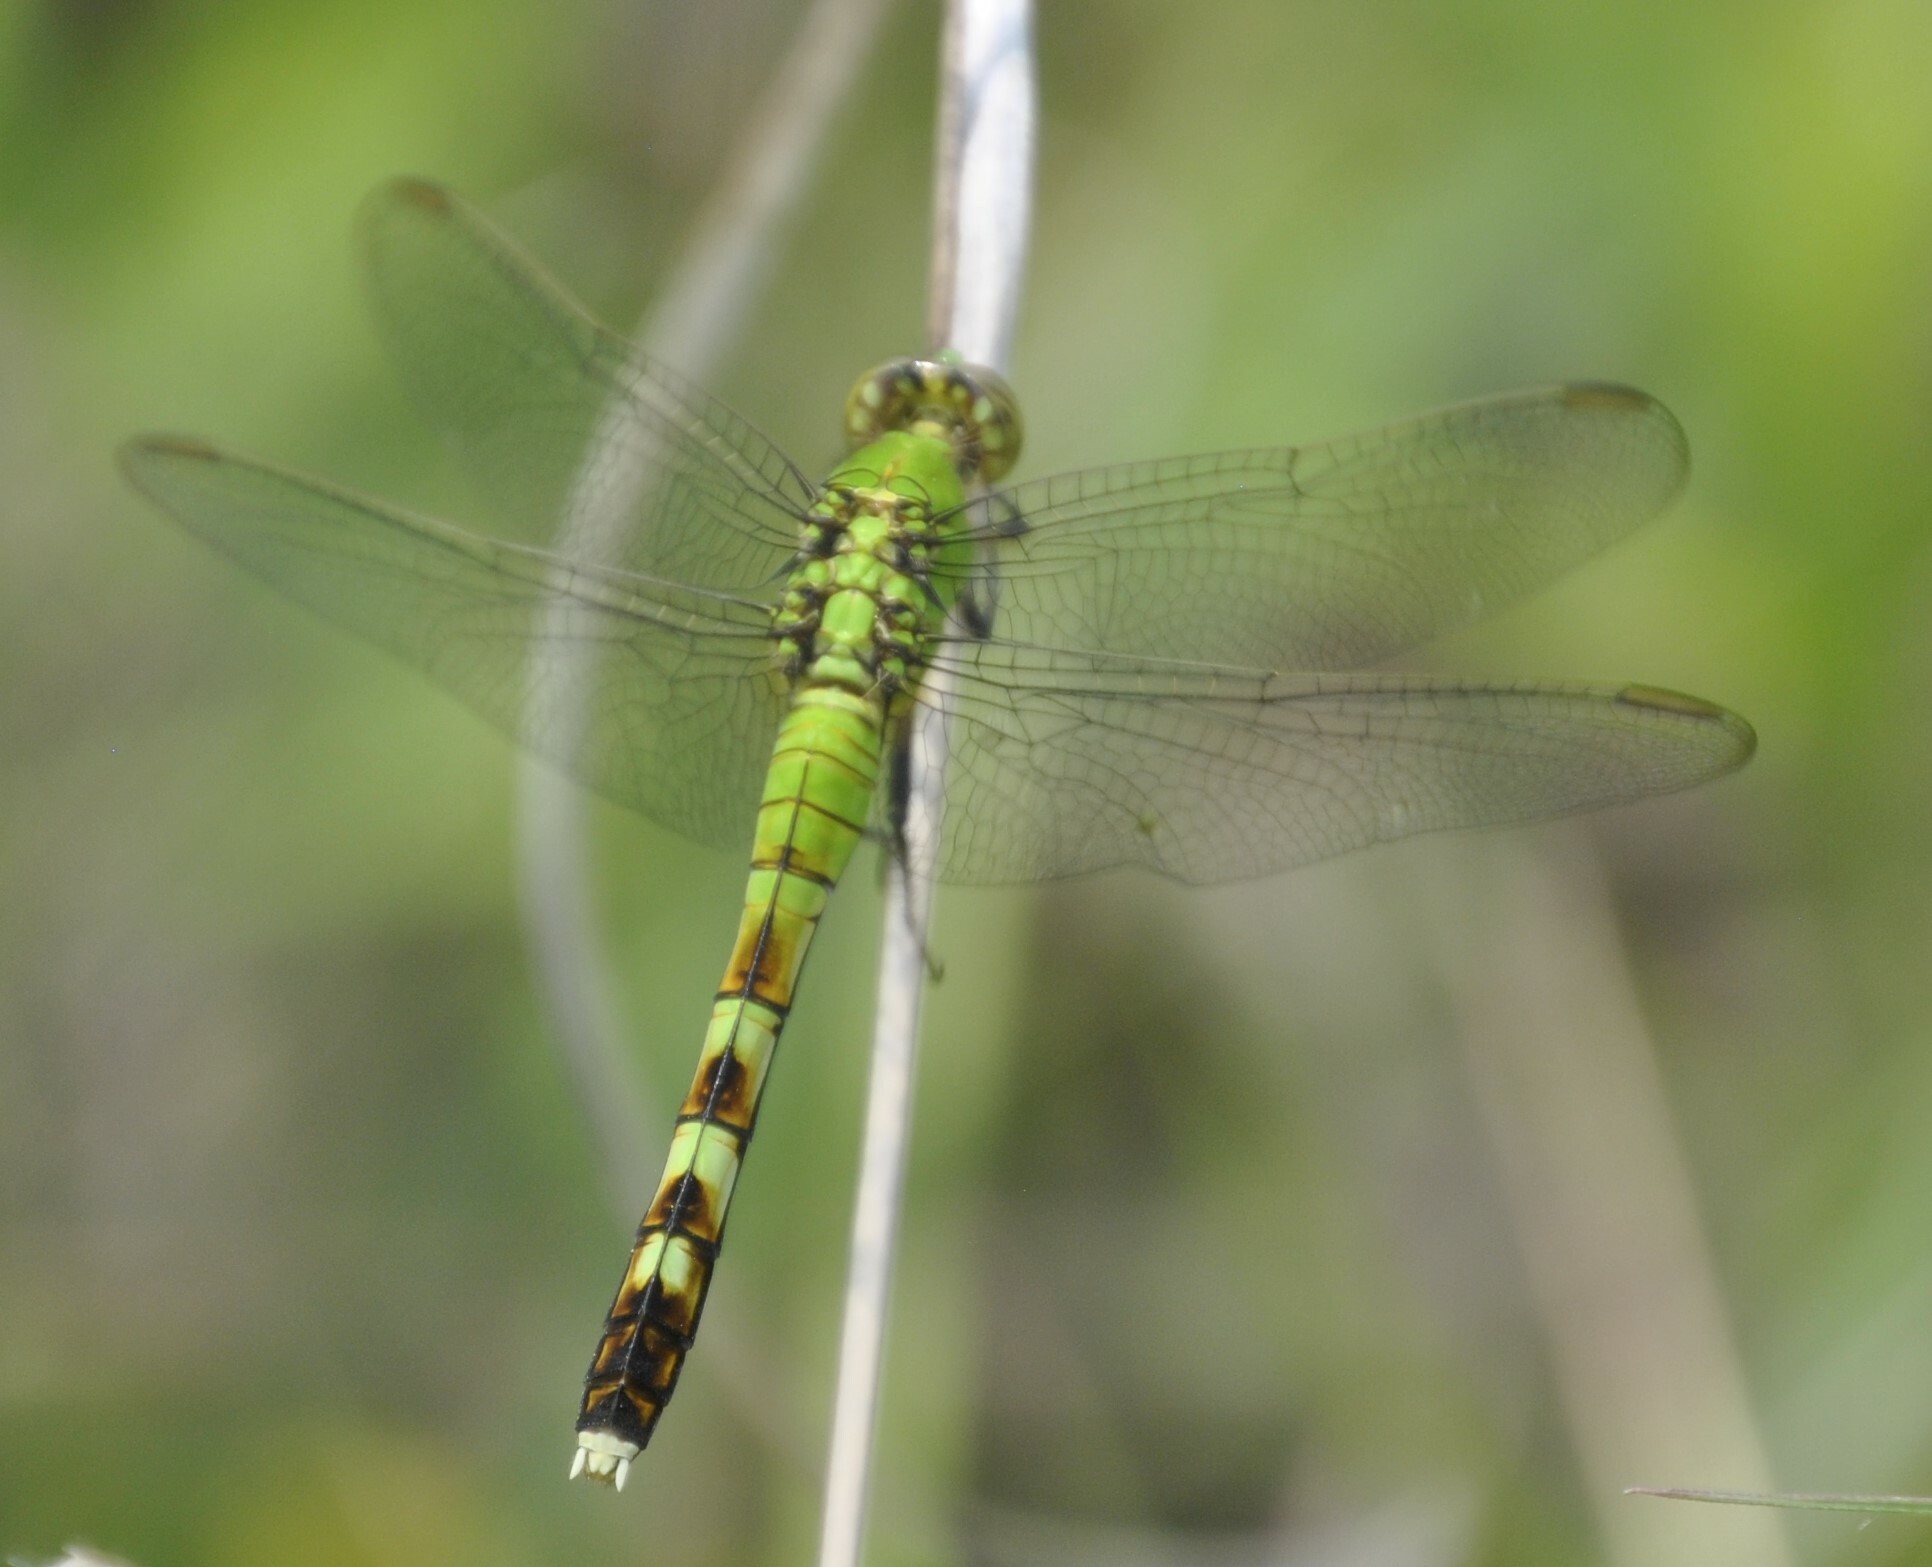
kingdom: Animalia
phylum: Arthropoda
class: Insecta
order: Odonata
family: Libellulidae
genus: Erythemis
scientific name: Erythemis simplicicollis
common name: Eastern pondhawk
